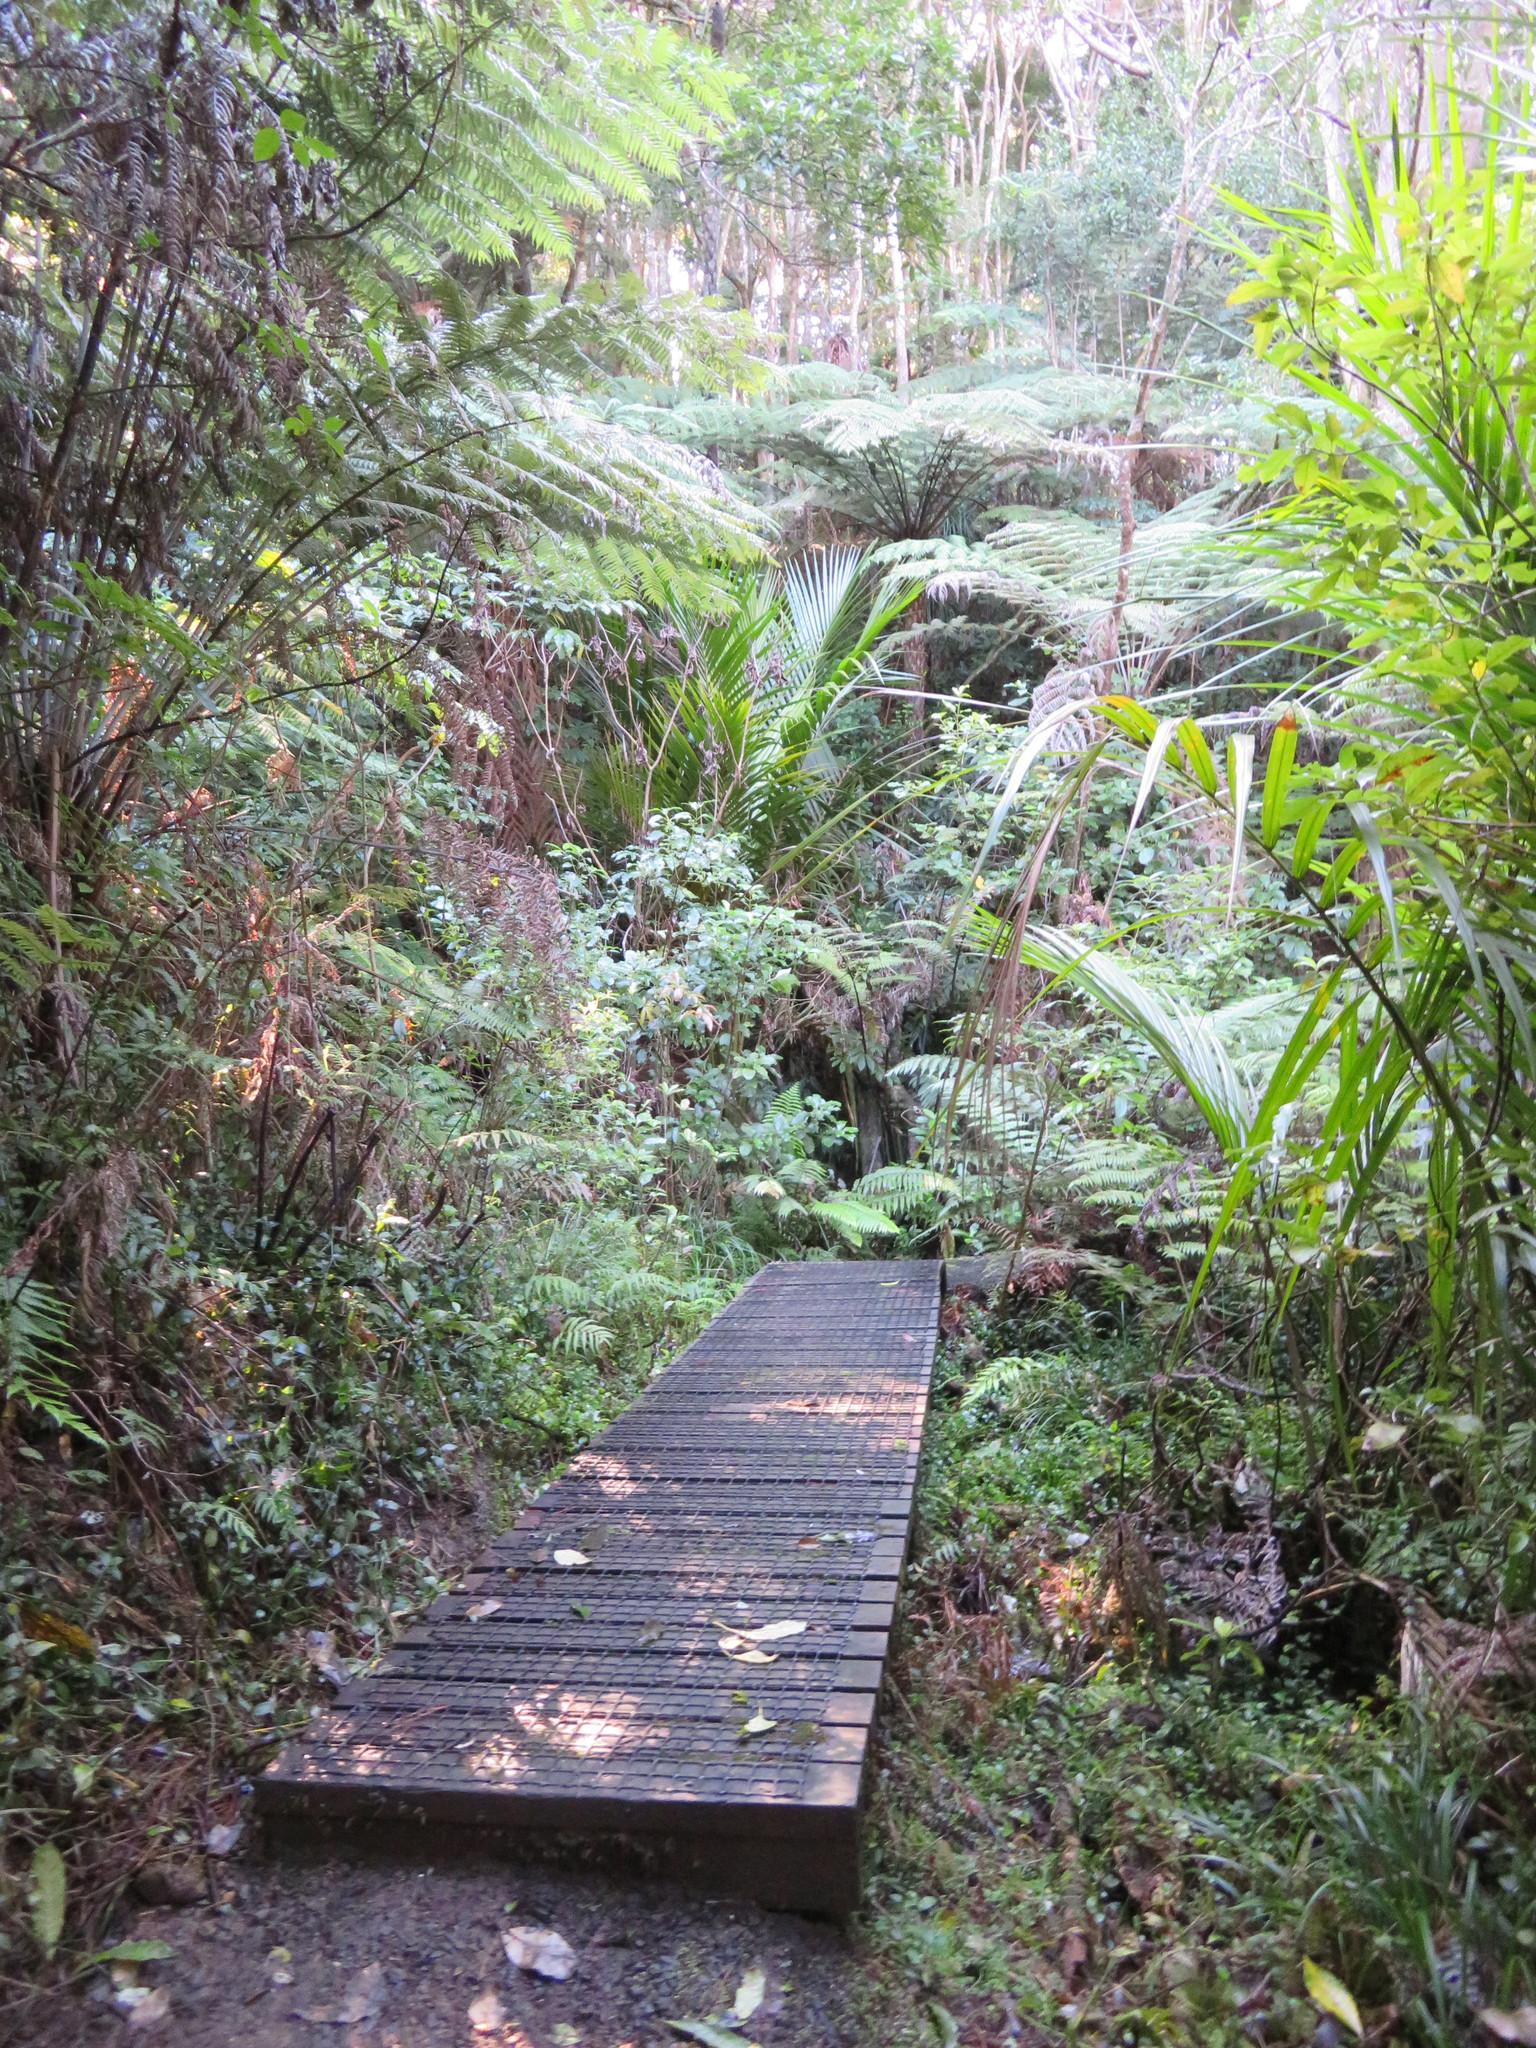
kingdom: Plantae
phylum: Tracheophyta
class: Liliopsida
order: Arecales
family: Arecaceae
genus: Rhopalostylis
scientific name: Rhopalostylis sapida
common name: Feather-duster palm
